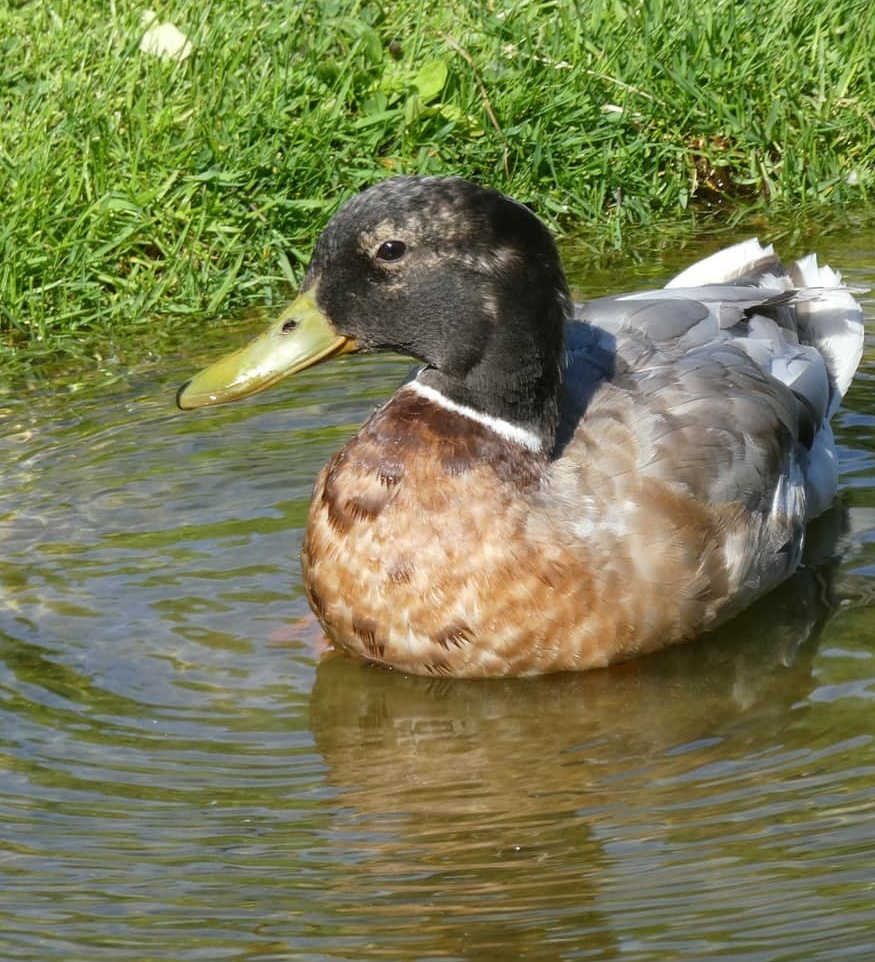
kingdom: Animalia
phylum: Chordata
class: Aves
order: Anseriformes
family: Anatidae
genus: Anas
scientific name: Anas platyrhynchos
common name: Mallard
